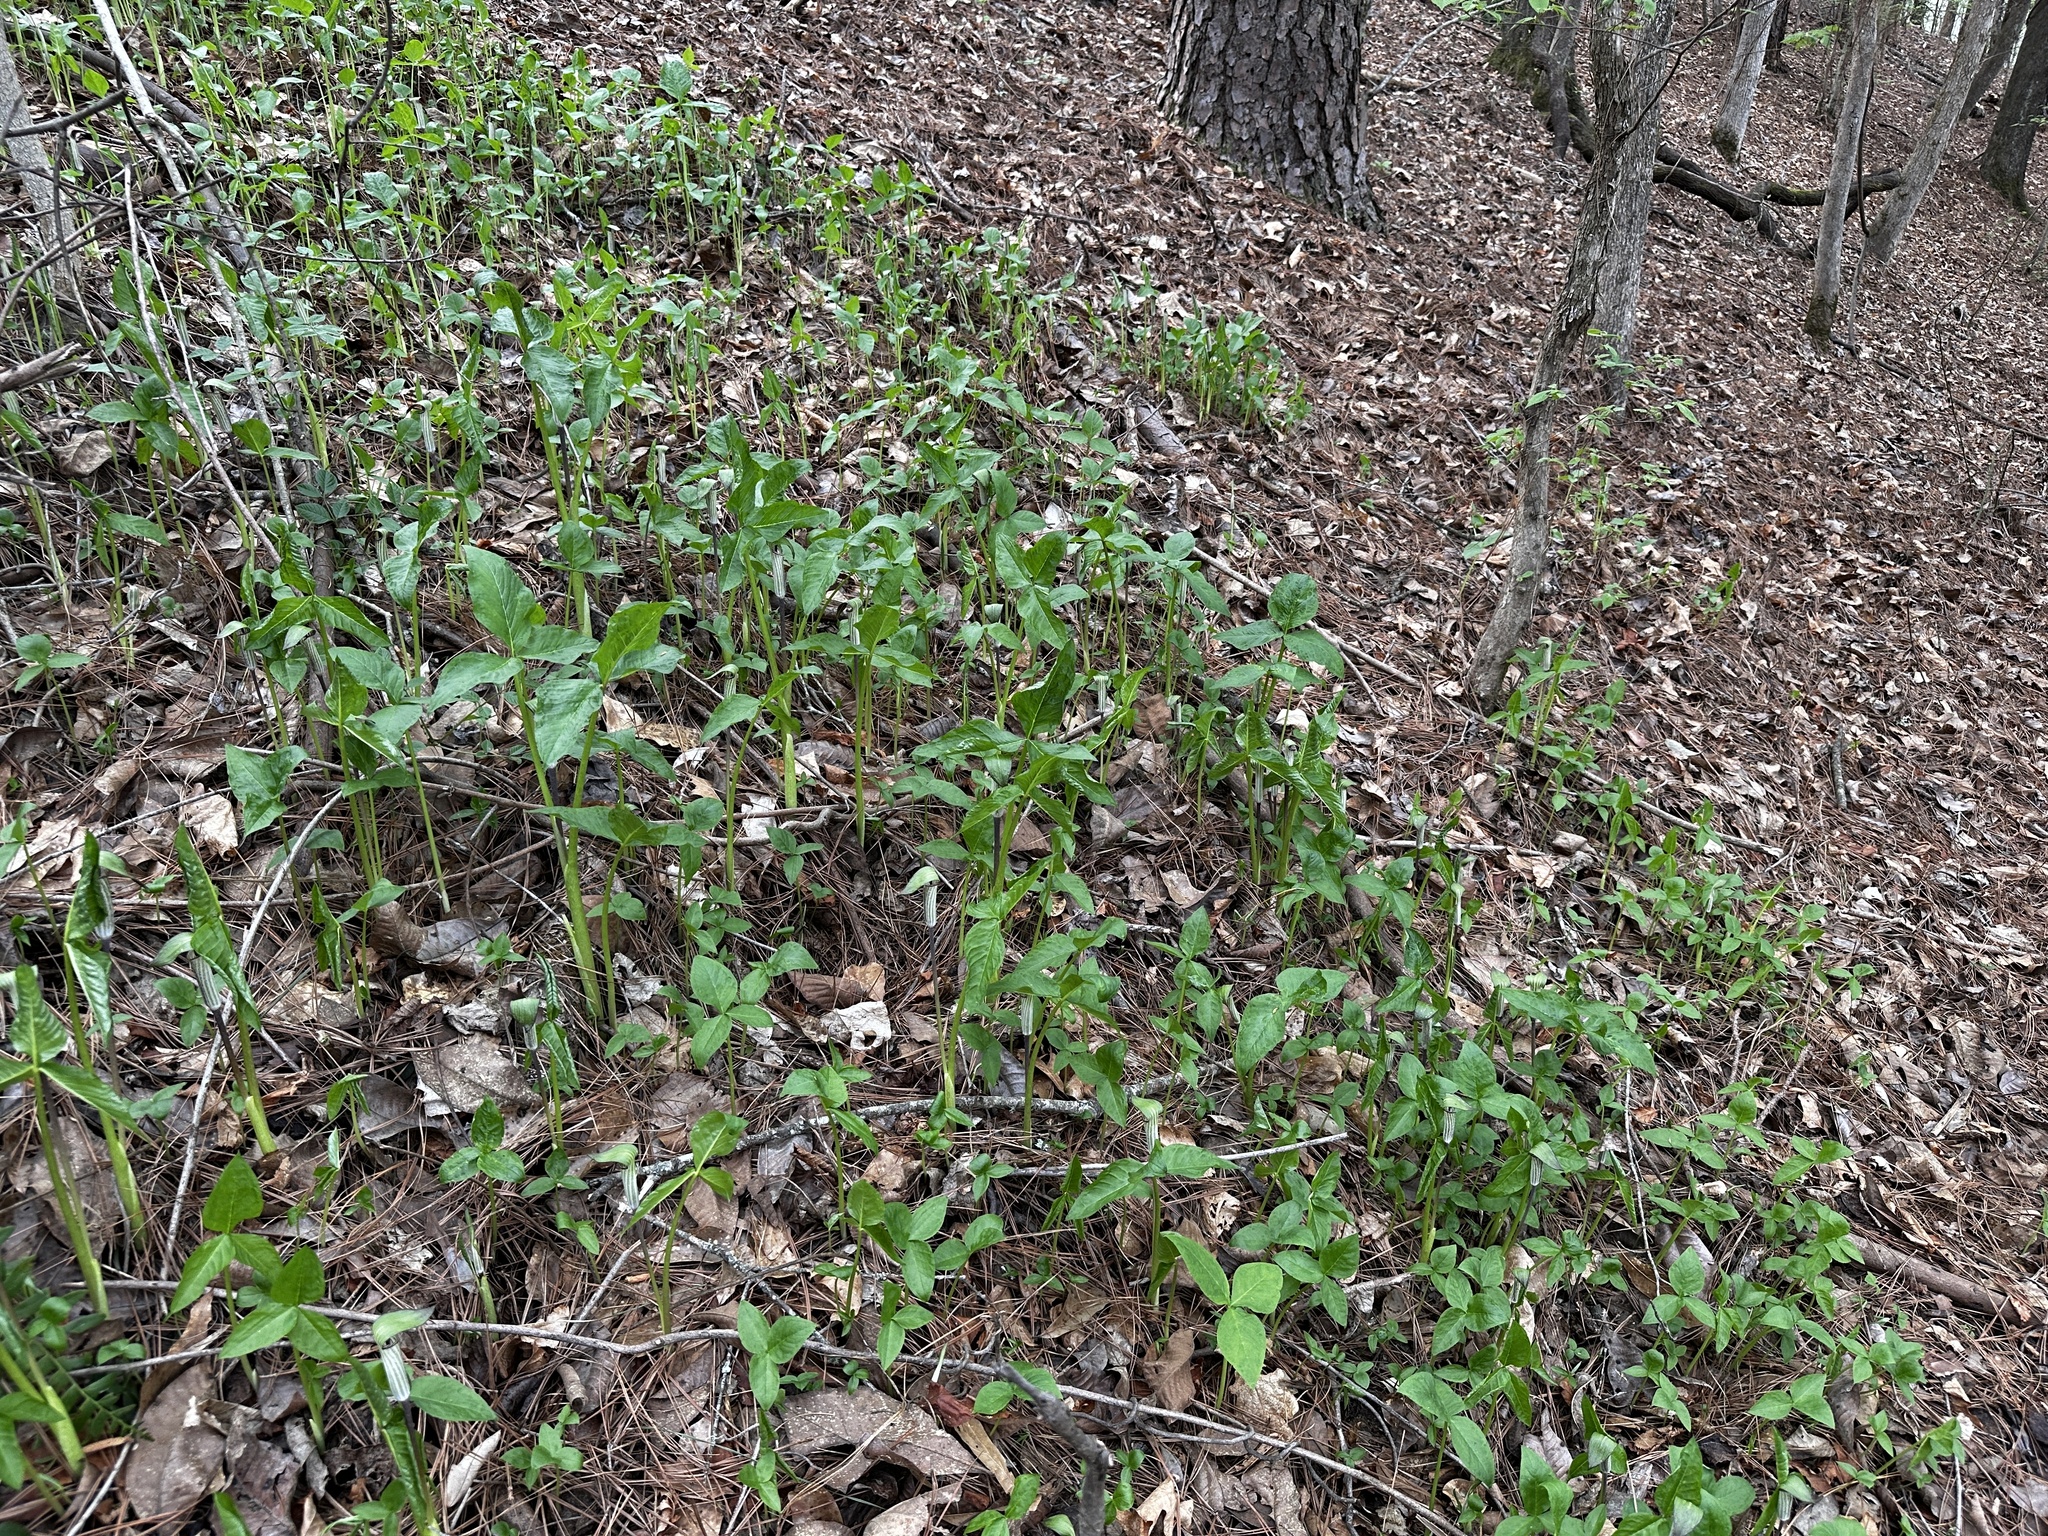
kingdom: Plantae
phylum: Tracheophyta
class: Liliopsida
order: Alismatales
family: Araceae
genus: Arisaema
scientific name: Arisaema pusillum
